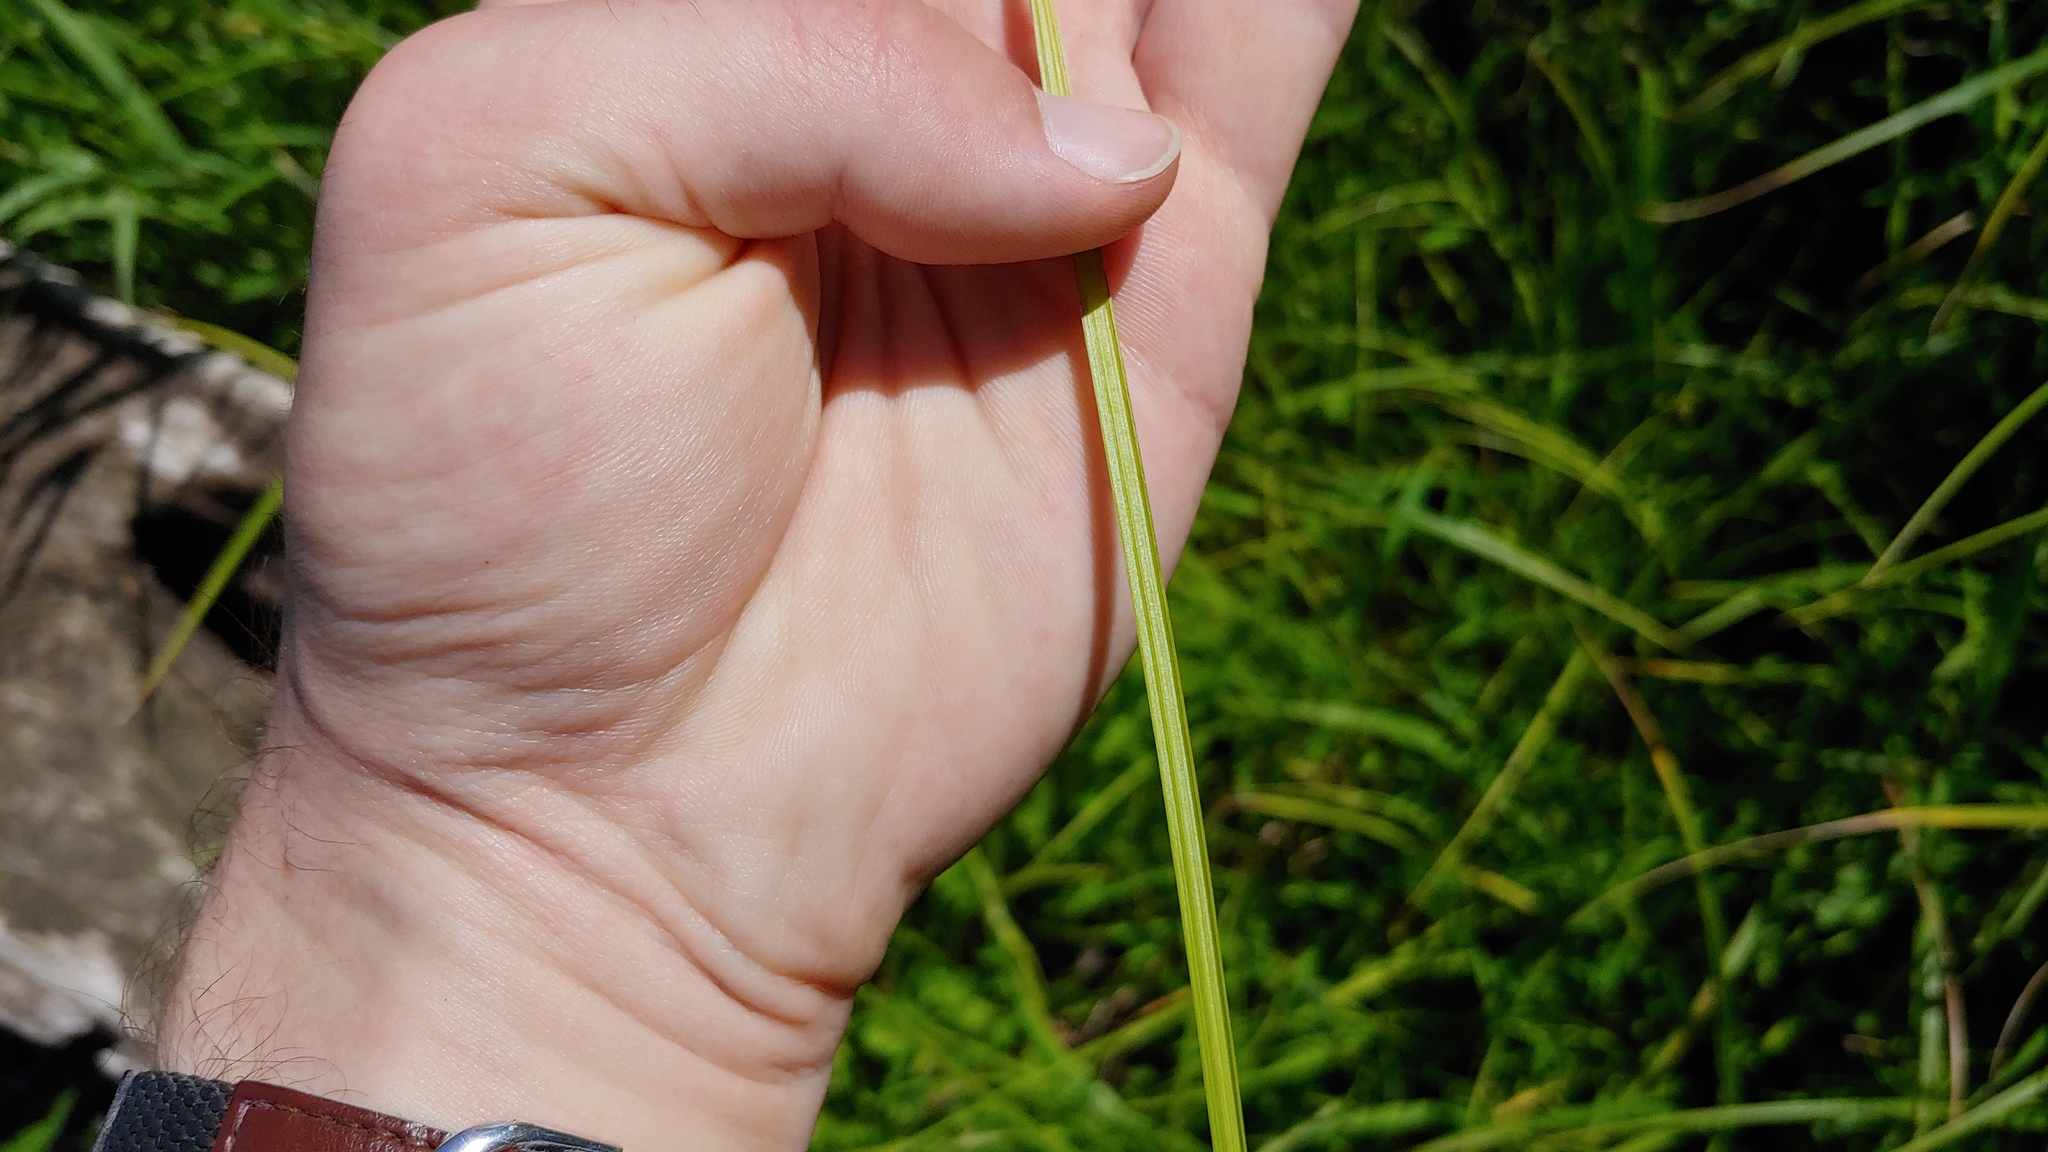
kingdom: Plantae
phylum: Tracheophyta
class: Liliopsida
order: Poales
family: Cyperaceae
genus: Carex
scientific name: Carex stipata
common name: Awl-fruited sedge
